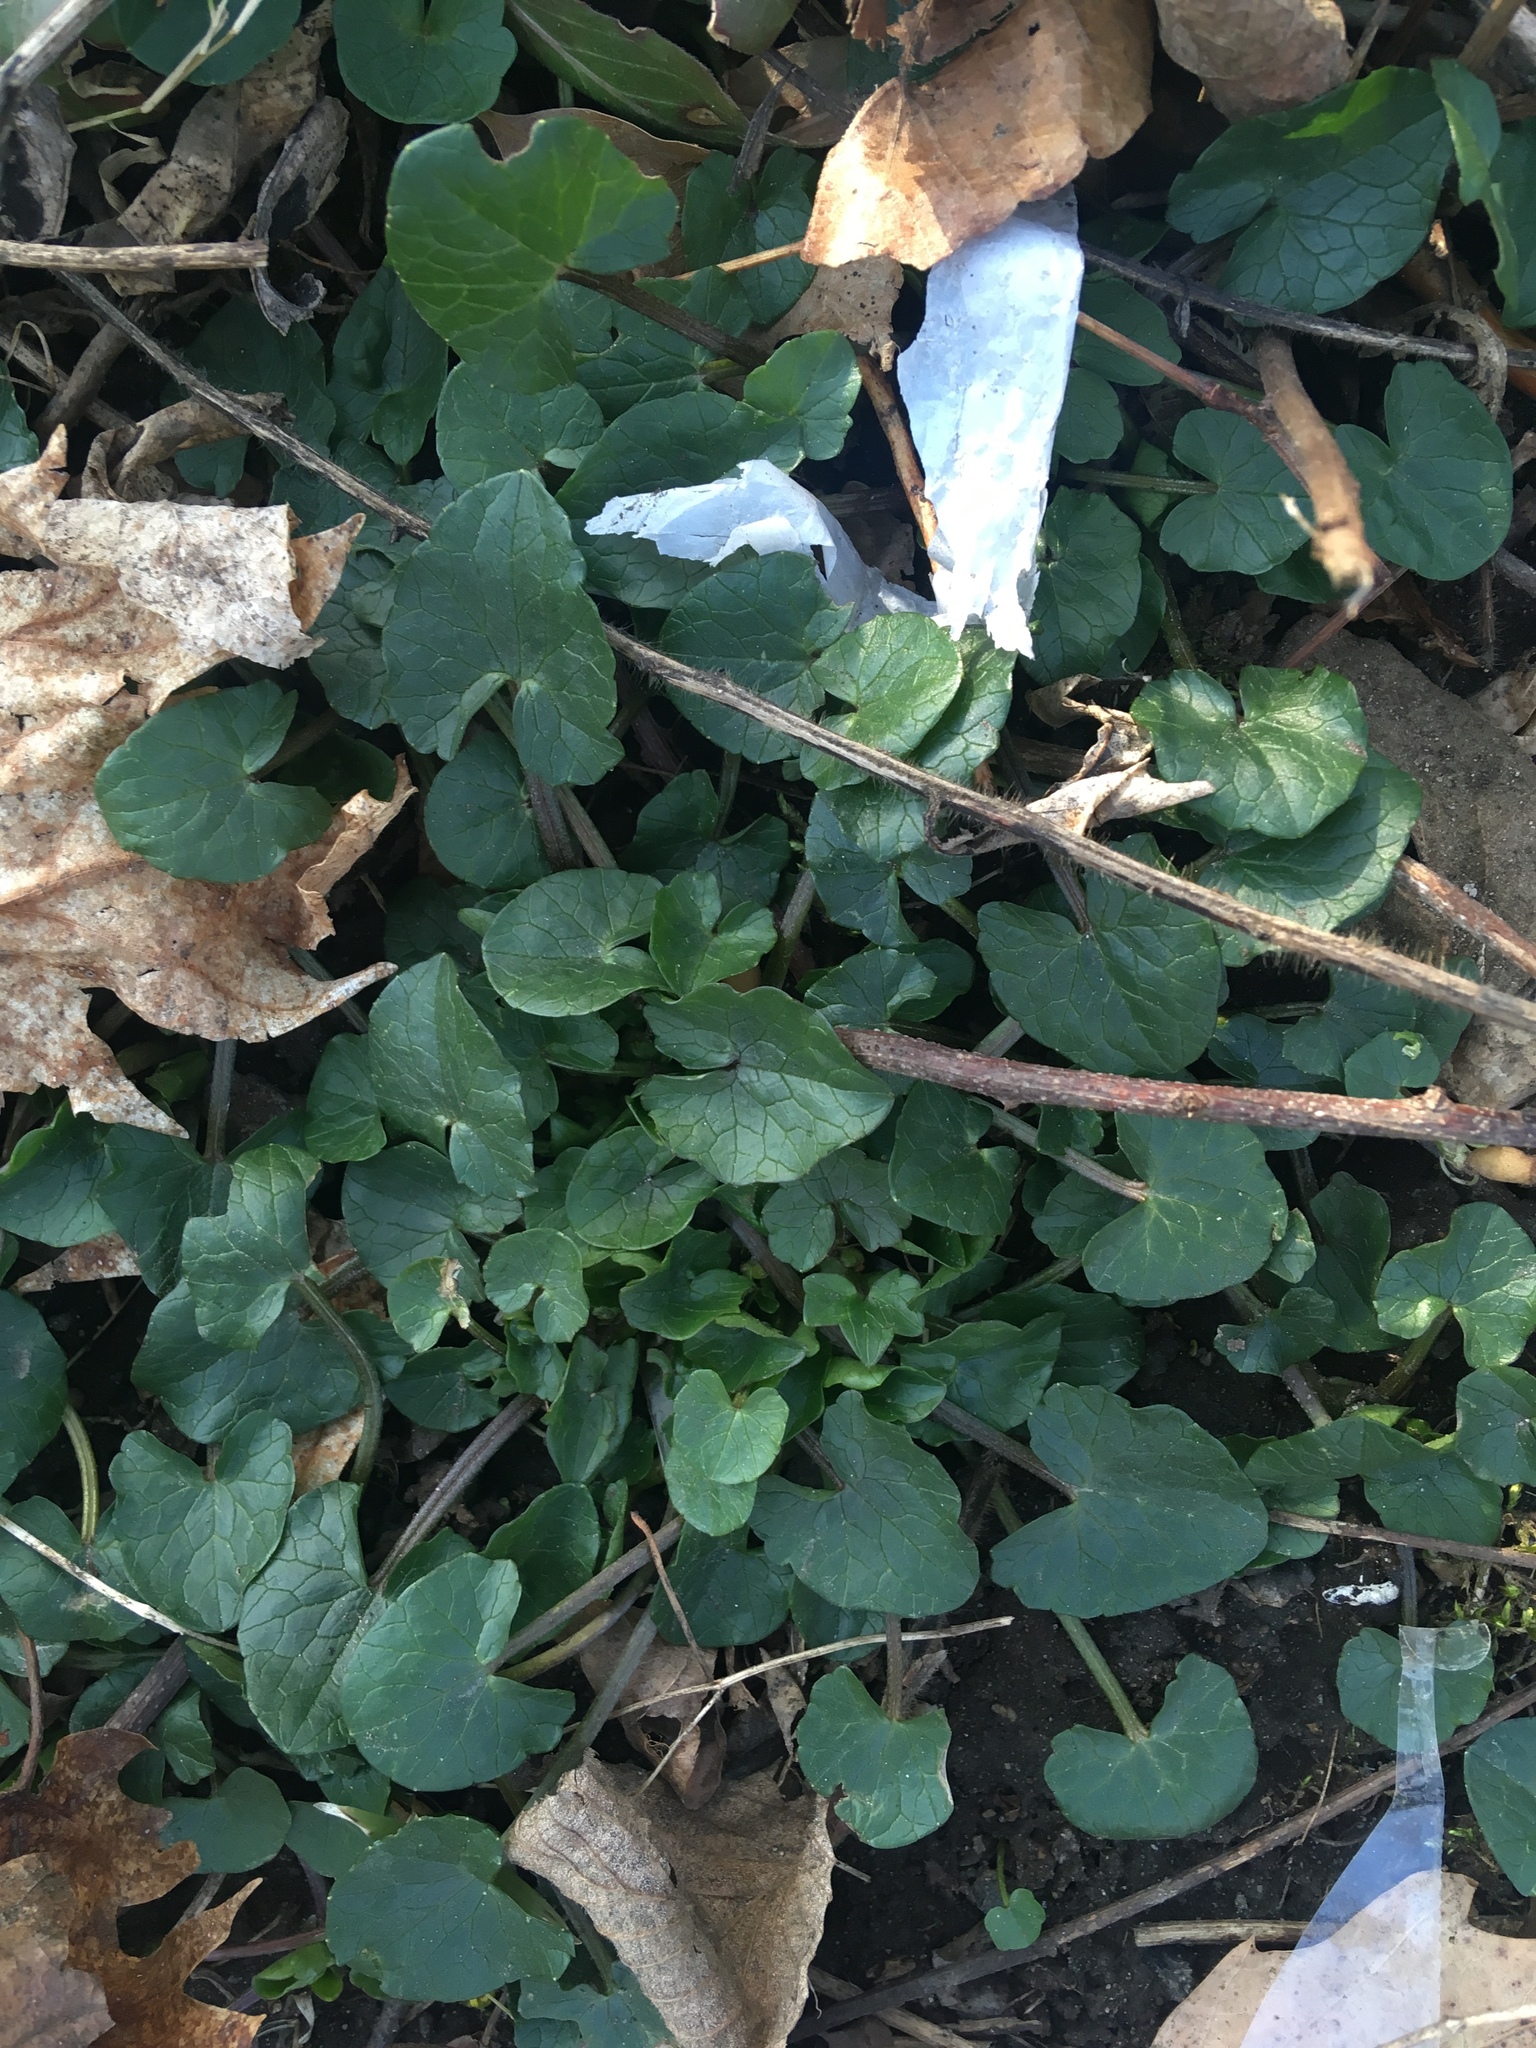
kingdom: Plantae
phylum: Tracheophyta
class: Magnoliopsida
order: Ranunculales
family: Ranunculaceae
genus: Ficaria
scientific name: Ficaria verna
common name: Lesser celandine
